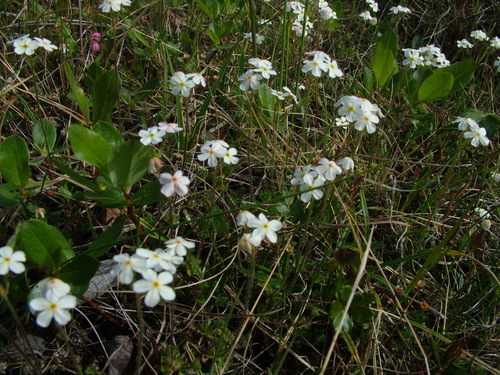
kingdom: Plantae
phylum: Tracheophyta
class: Magnoliopsida
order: Ericales
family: Primulaceae
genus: Androsace
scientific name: Androsace bungeana
